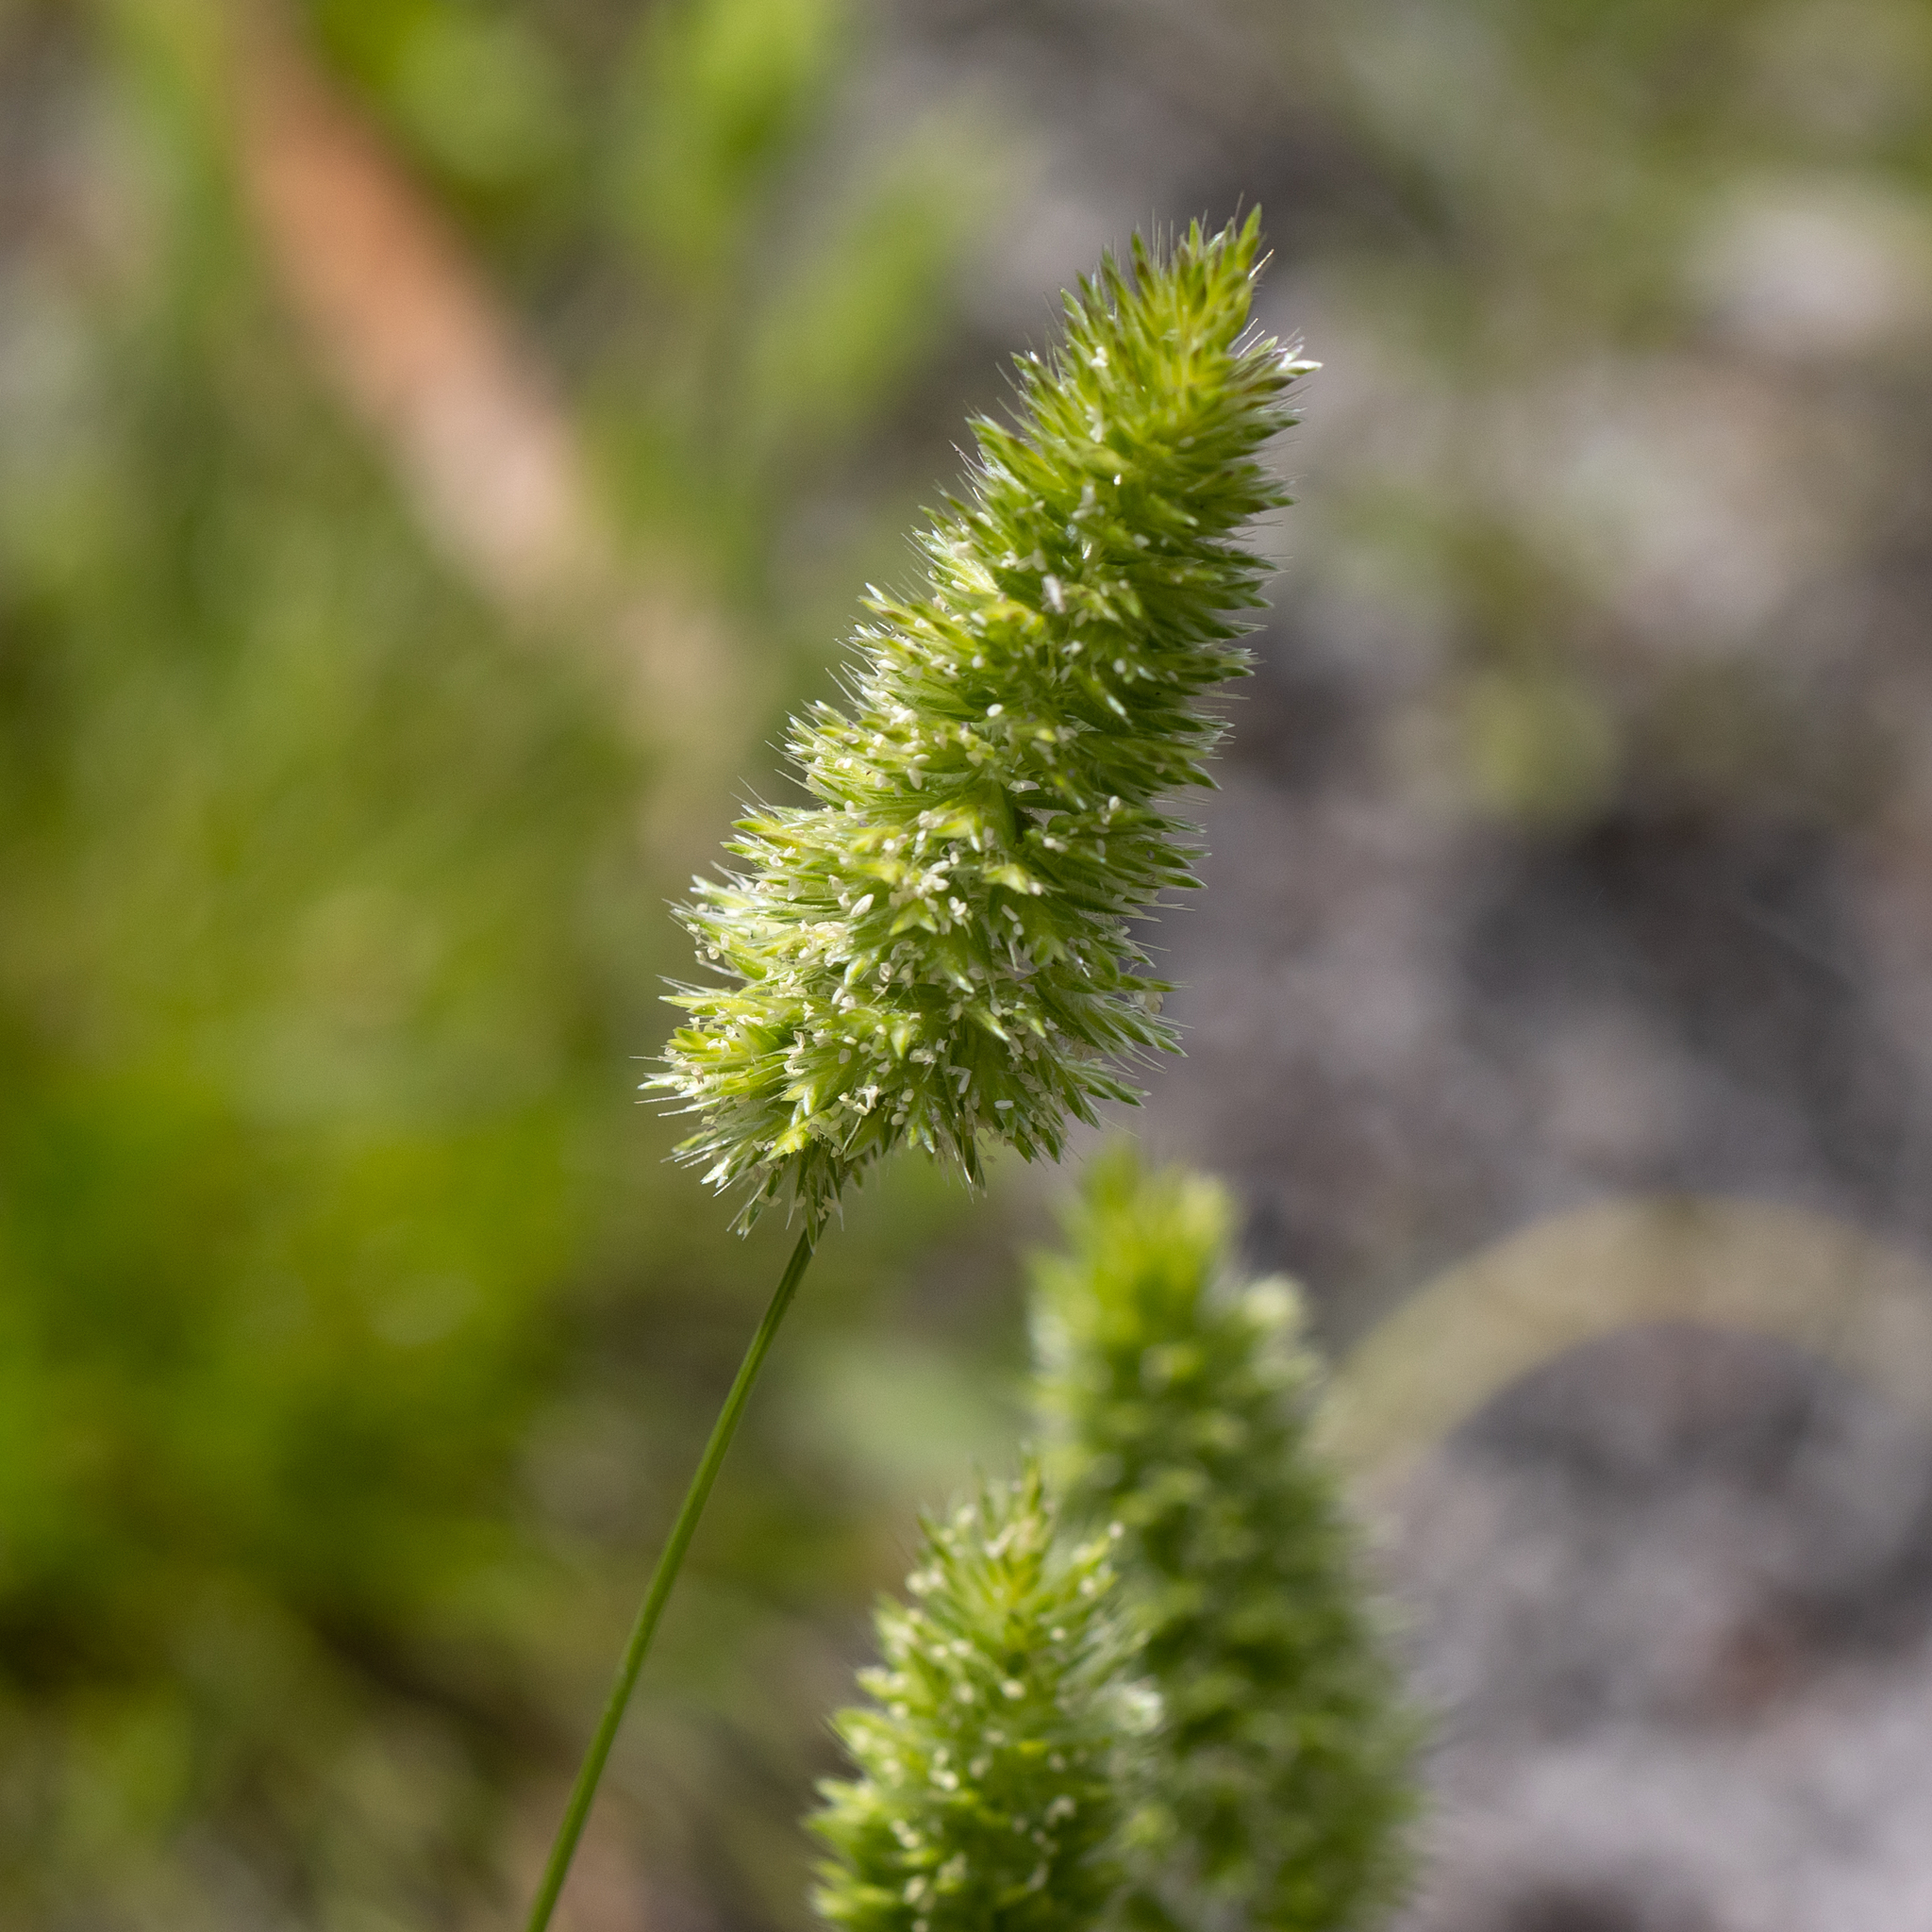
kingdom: Plantae
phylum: Tracheophyta
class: Liliopsida
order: Poales
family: Poaceae
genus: Rostraria
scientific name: Rostraria cristata
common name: Mediterranean hair-grass
